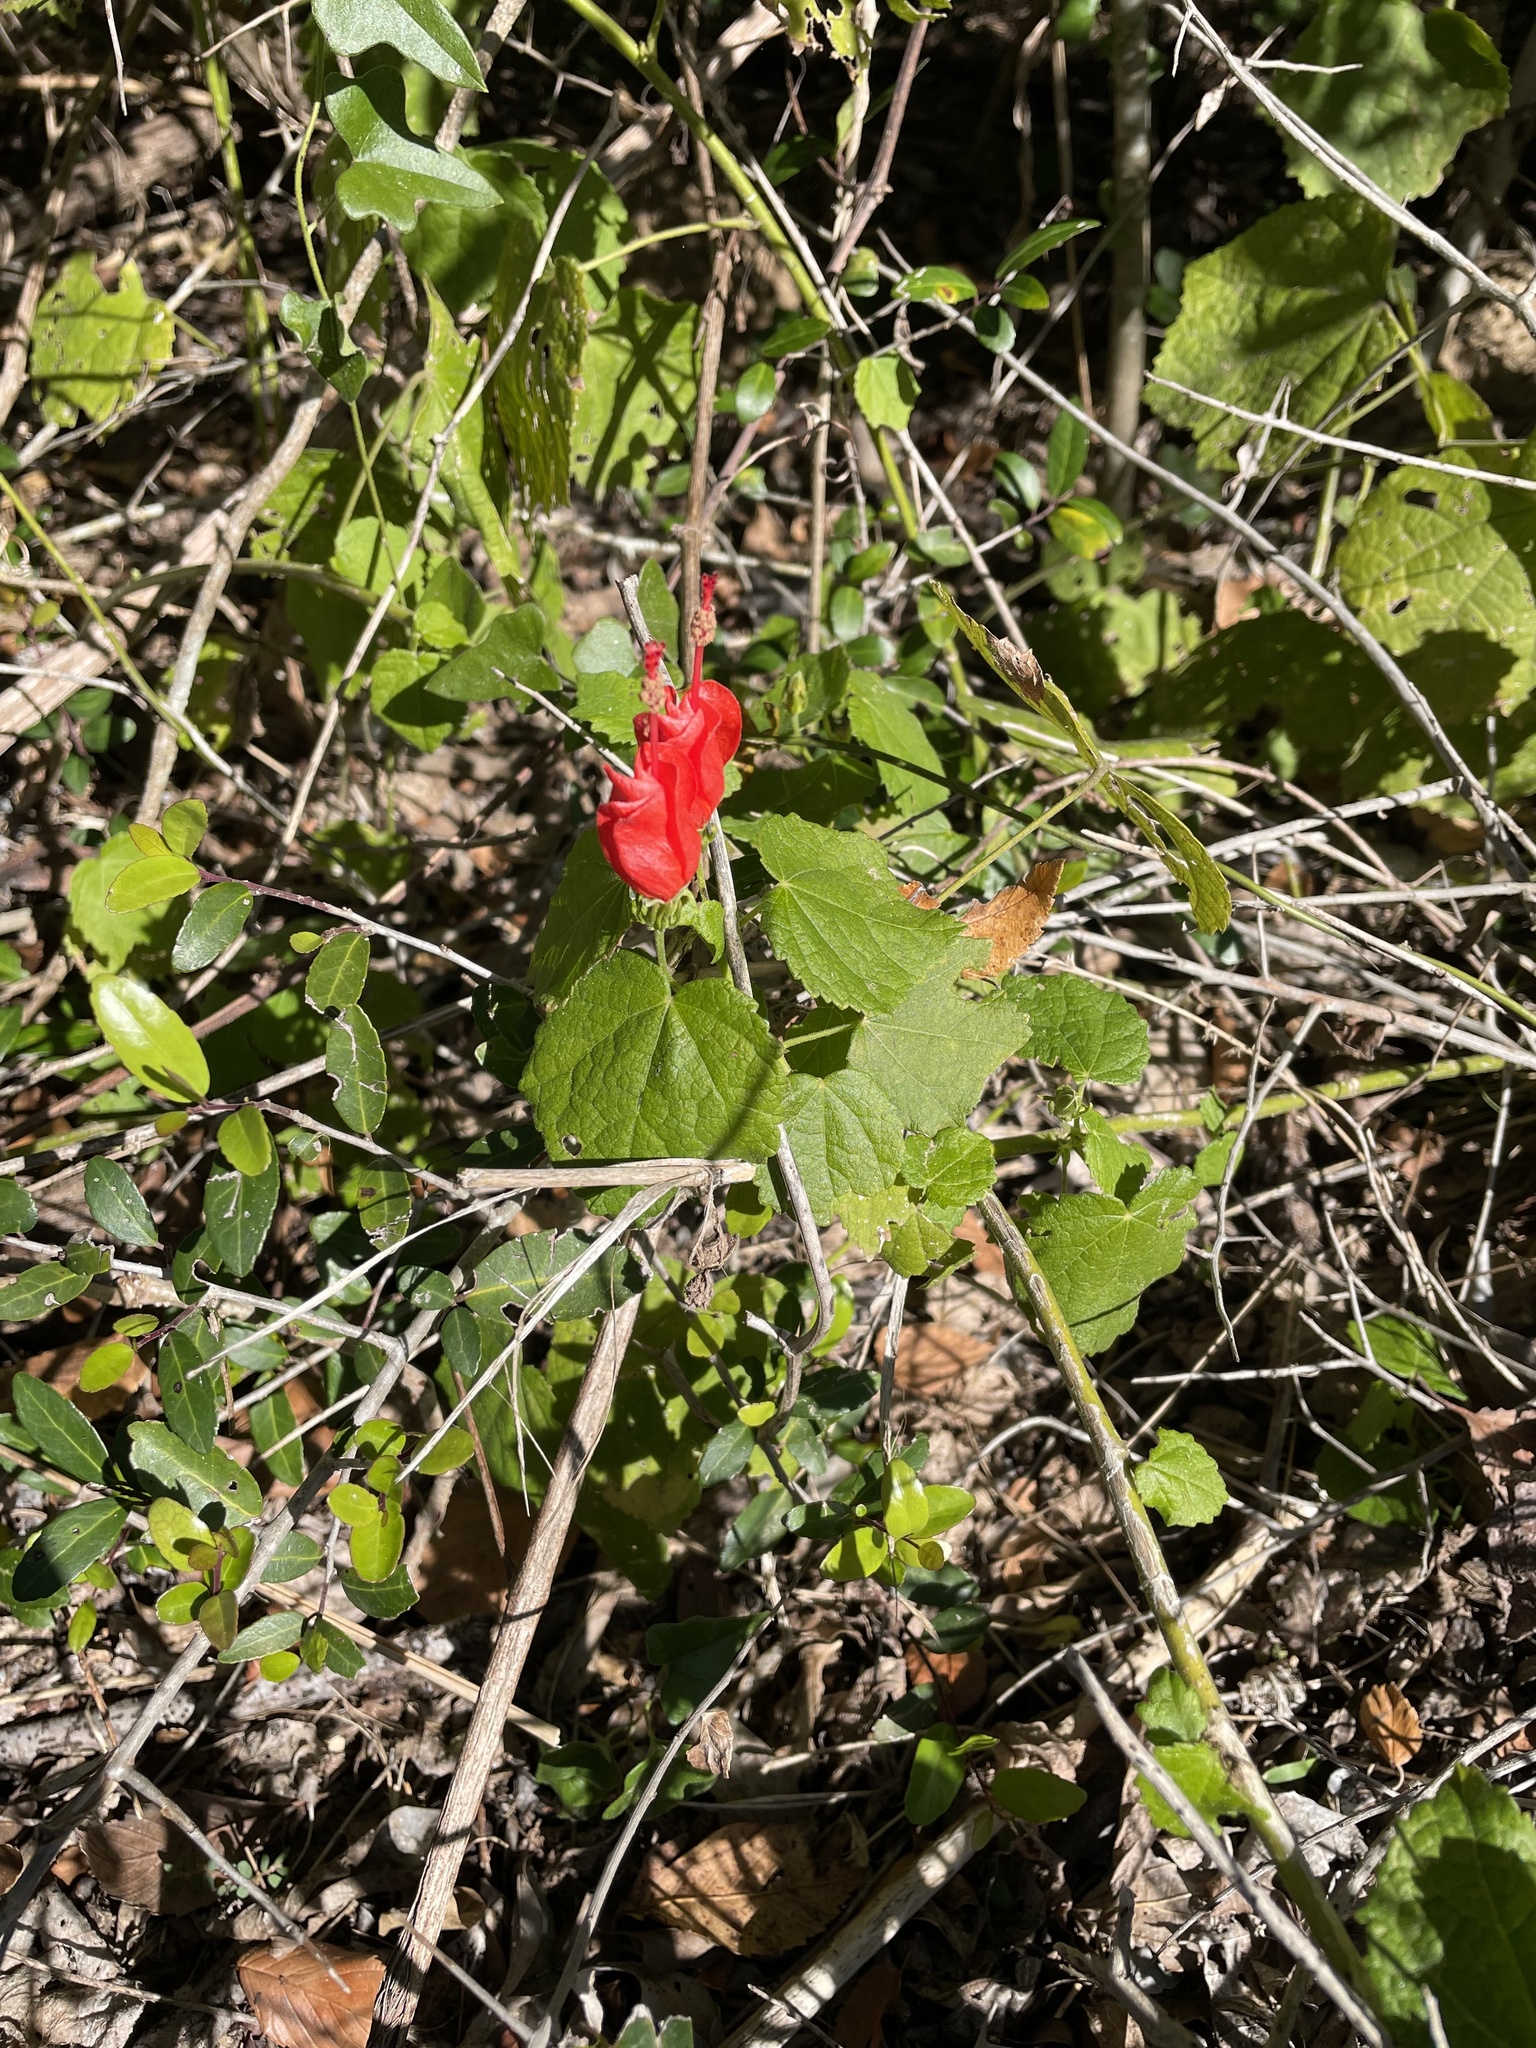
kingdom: Plantae
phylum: Tracheophyta
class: Magnoliopsida
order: Malvales
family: Malvaceae
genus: Malvaviscus
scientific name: Malvaviscus arboreus
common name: Wax mallow
